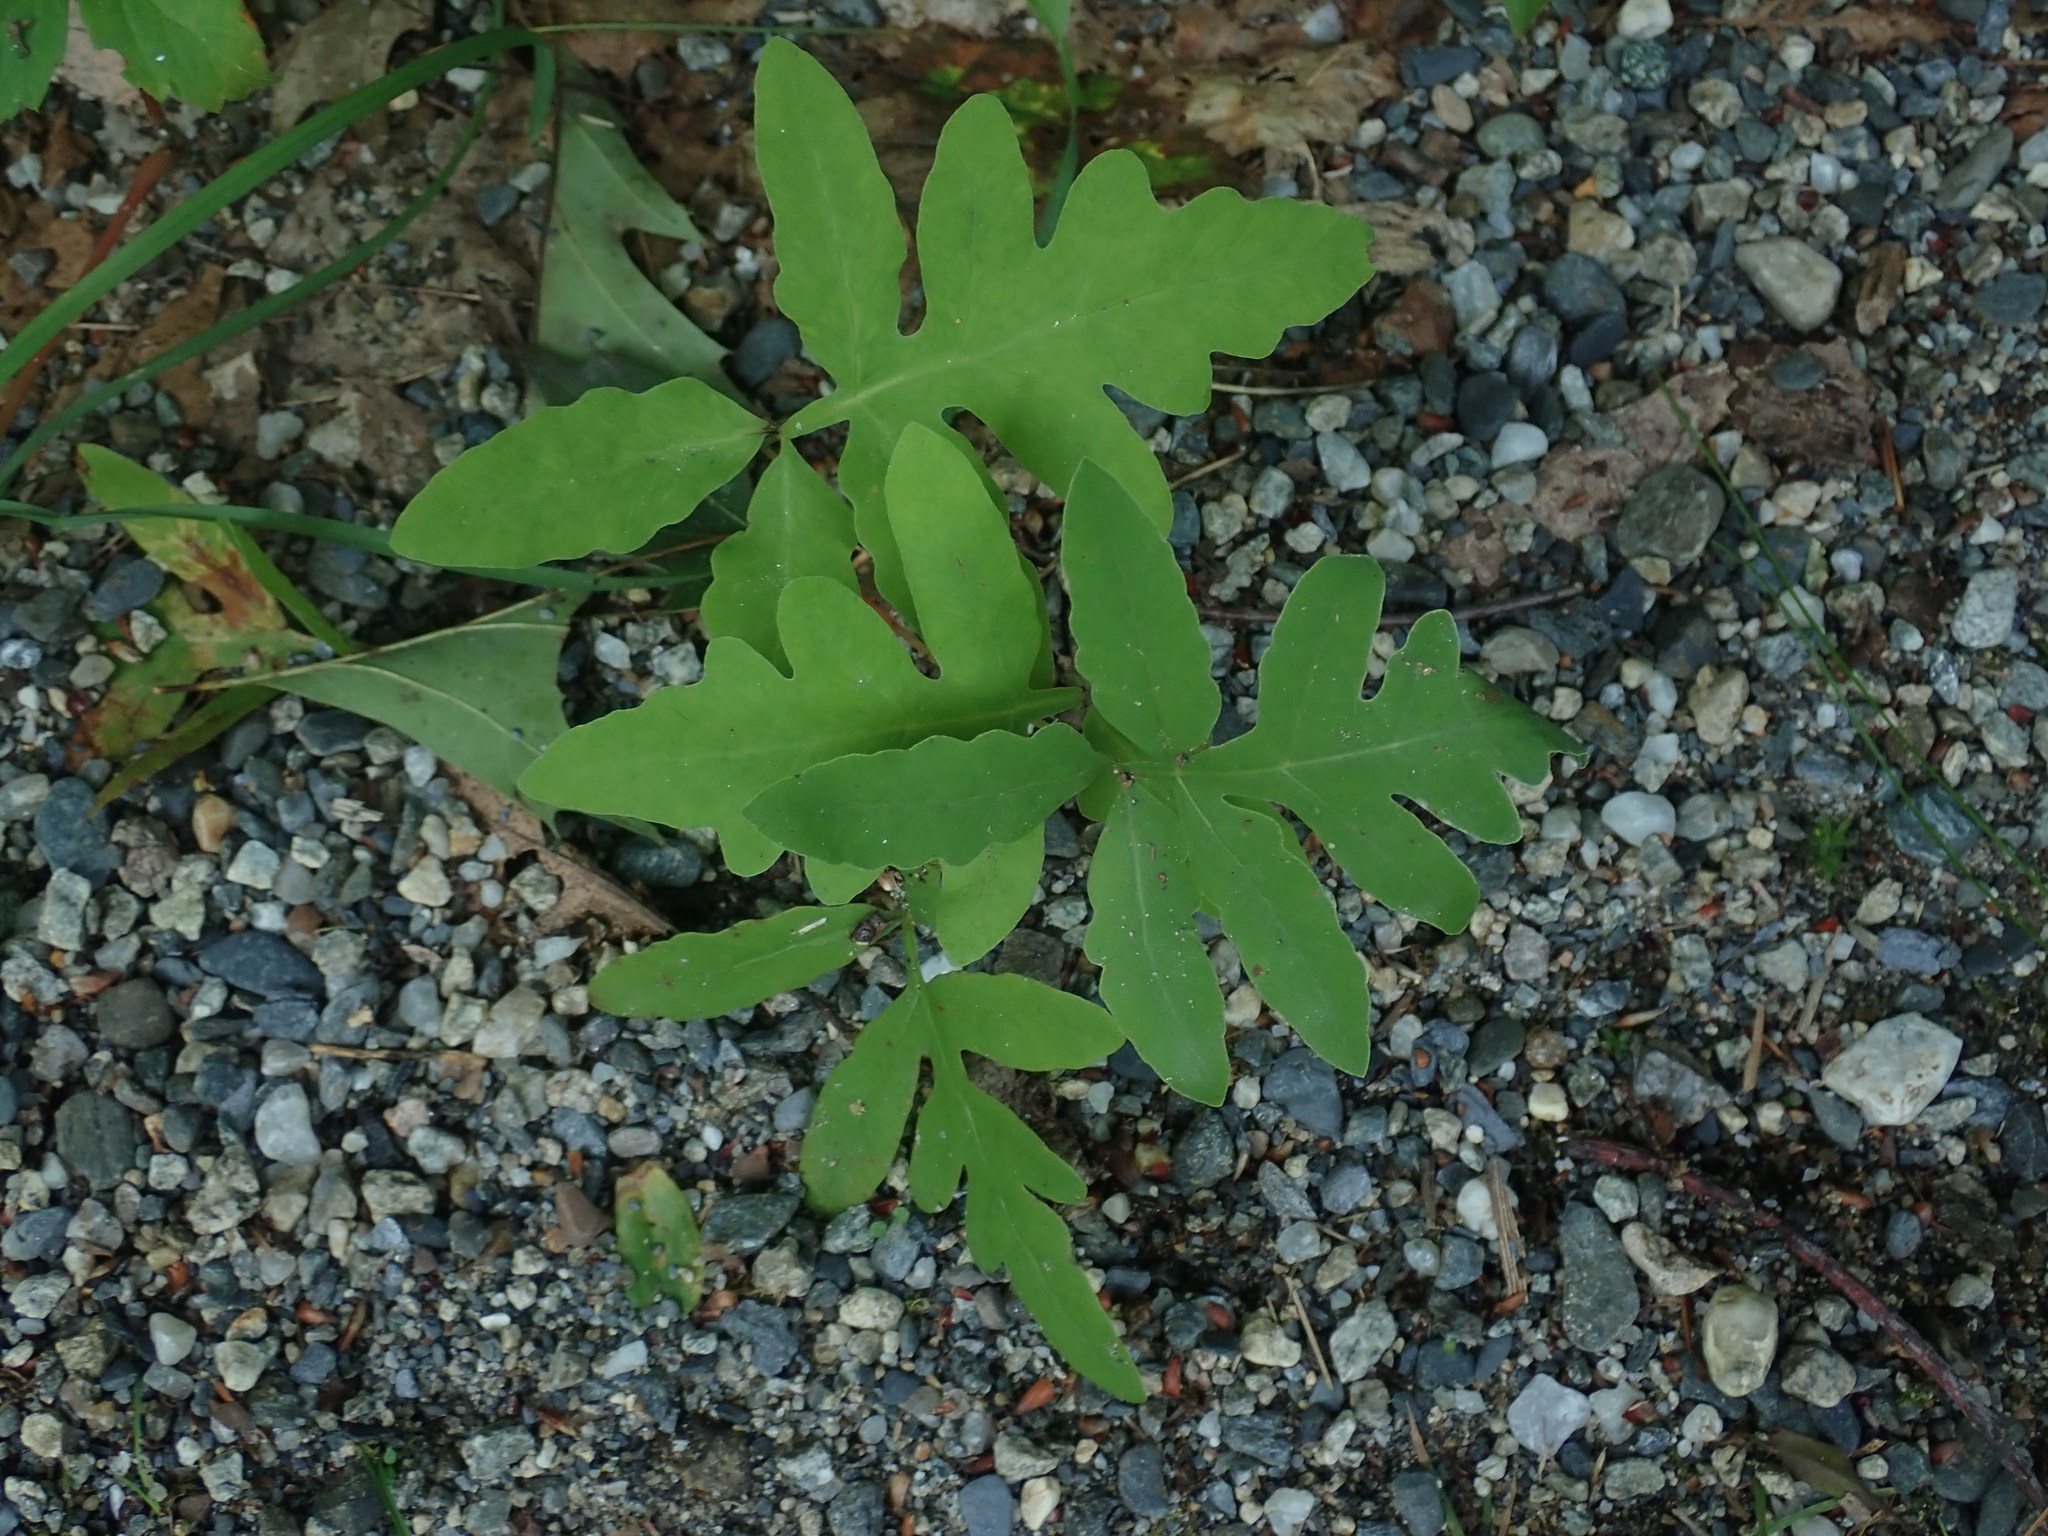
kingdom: Plantae
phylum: Tracheophyta
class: Polypodiopsida
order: Polypodiales
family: Onocleaceae
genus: Onoclea
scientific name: Onoclea sensibilis
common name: Sensitive fern
